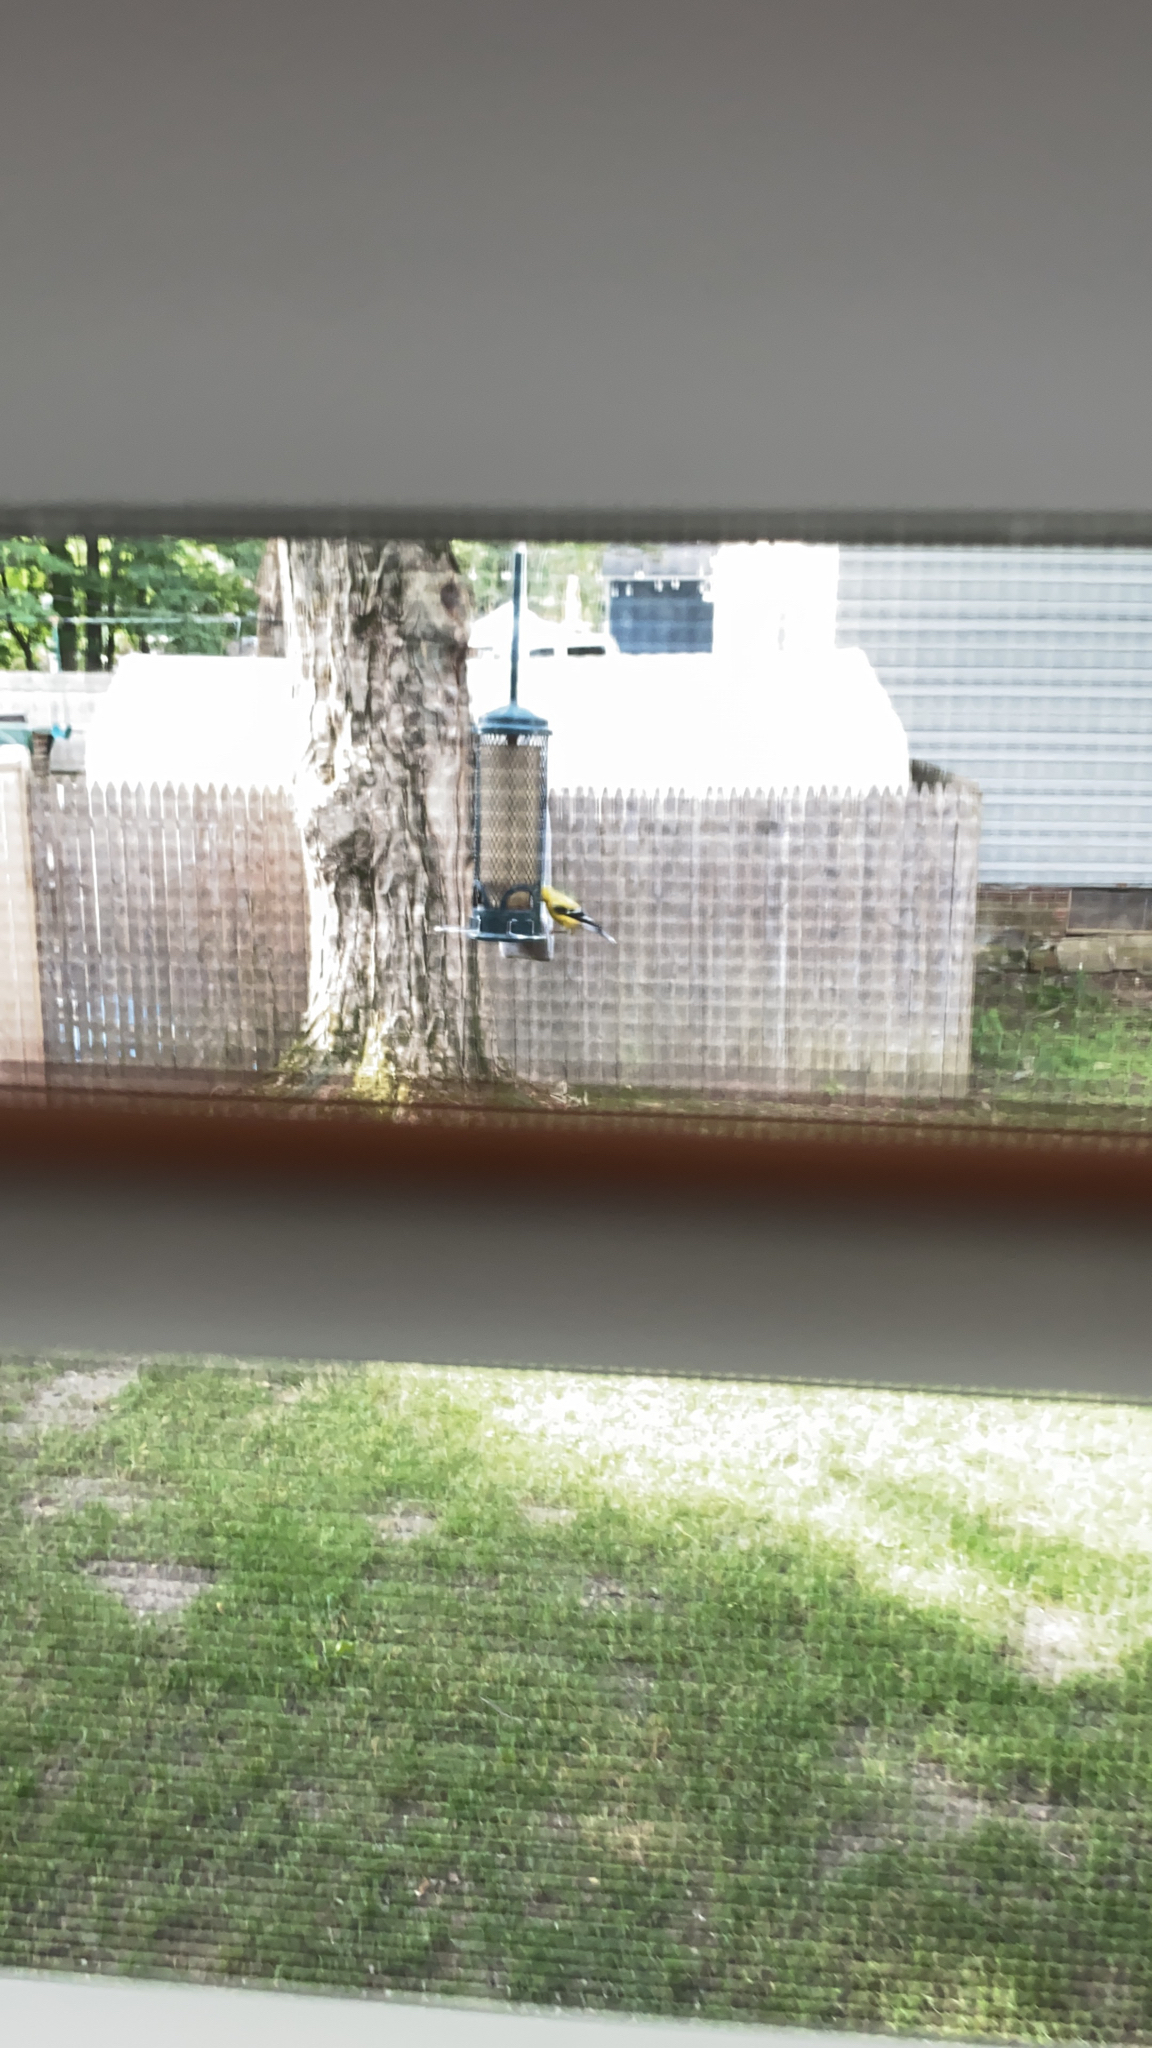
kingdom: Animalia
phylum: Chordata
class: Aves
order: Passeriformes
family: Fringillidae
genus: Spinus
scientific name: Spinus tristis
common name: American goldfinch
